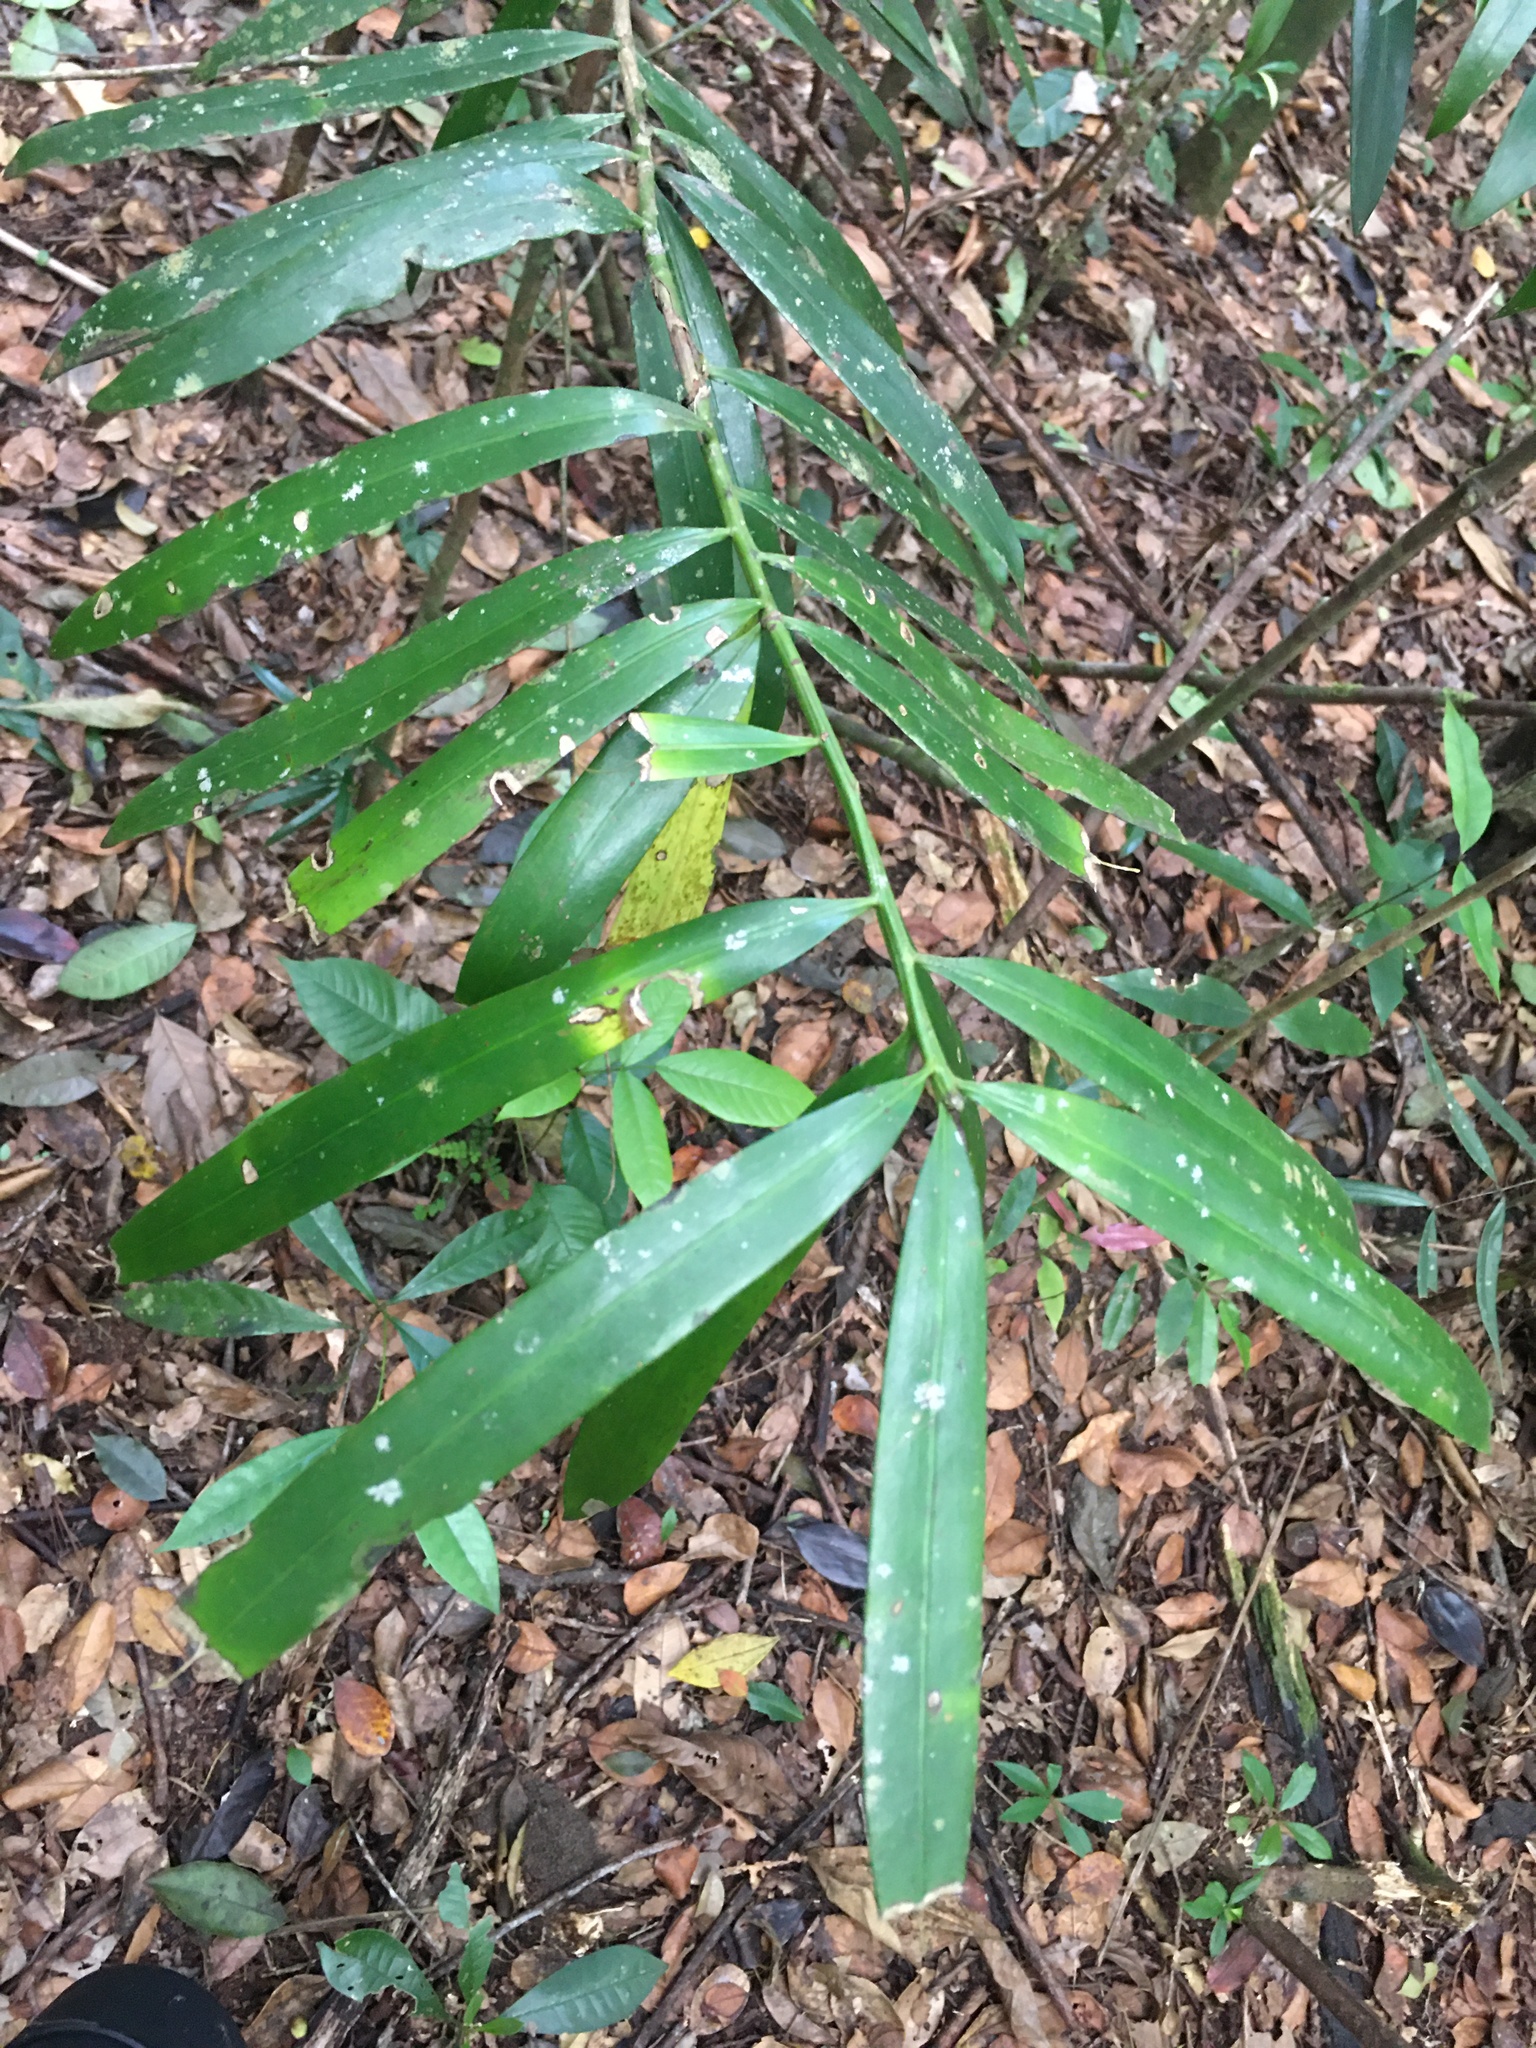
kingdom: Plantae
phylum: Tracheophyta
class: Pinopsida
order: Pinales
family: Podocarpaceae
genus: Podocarpus
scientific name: Podocarpus sellowii
